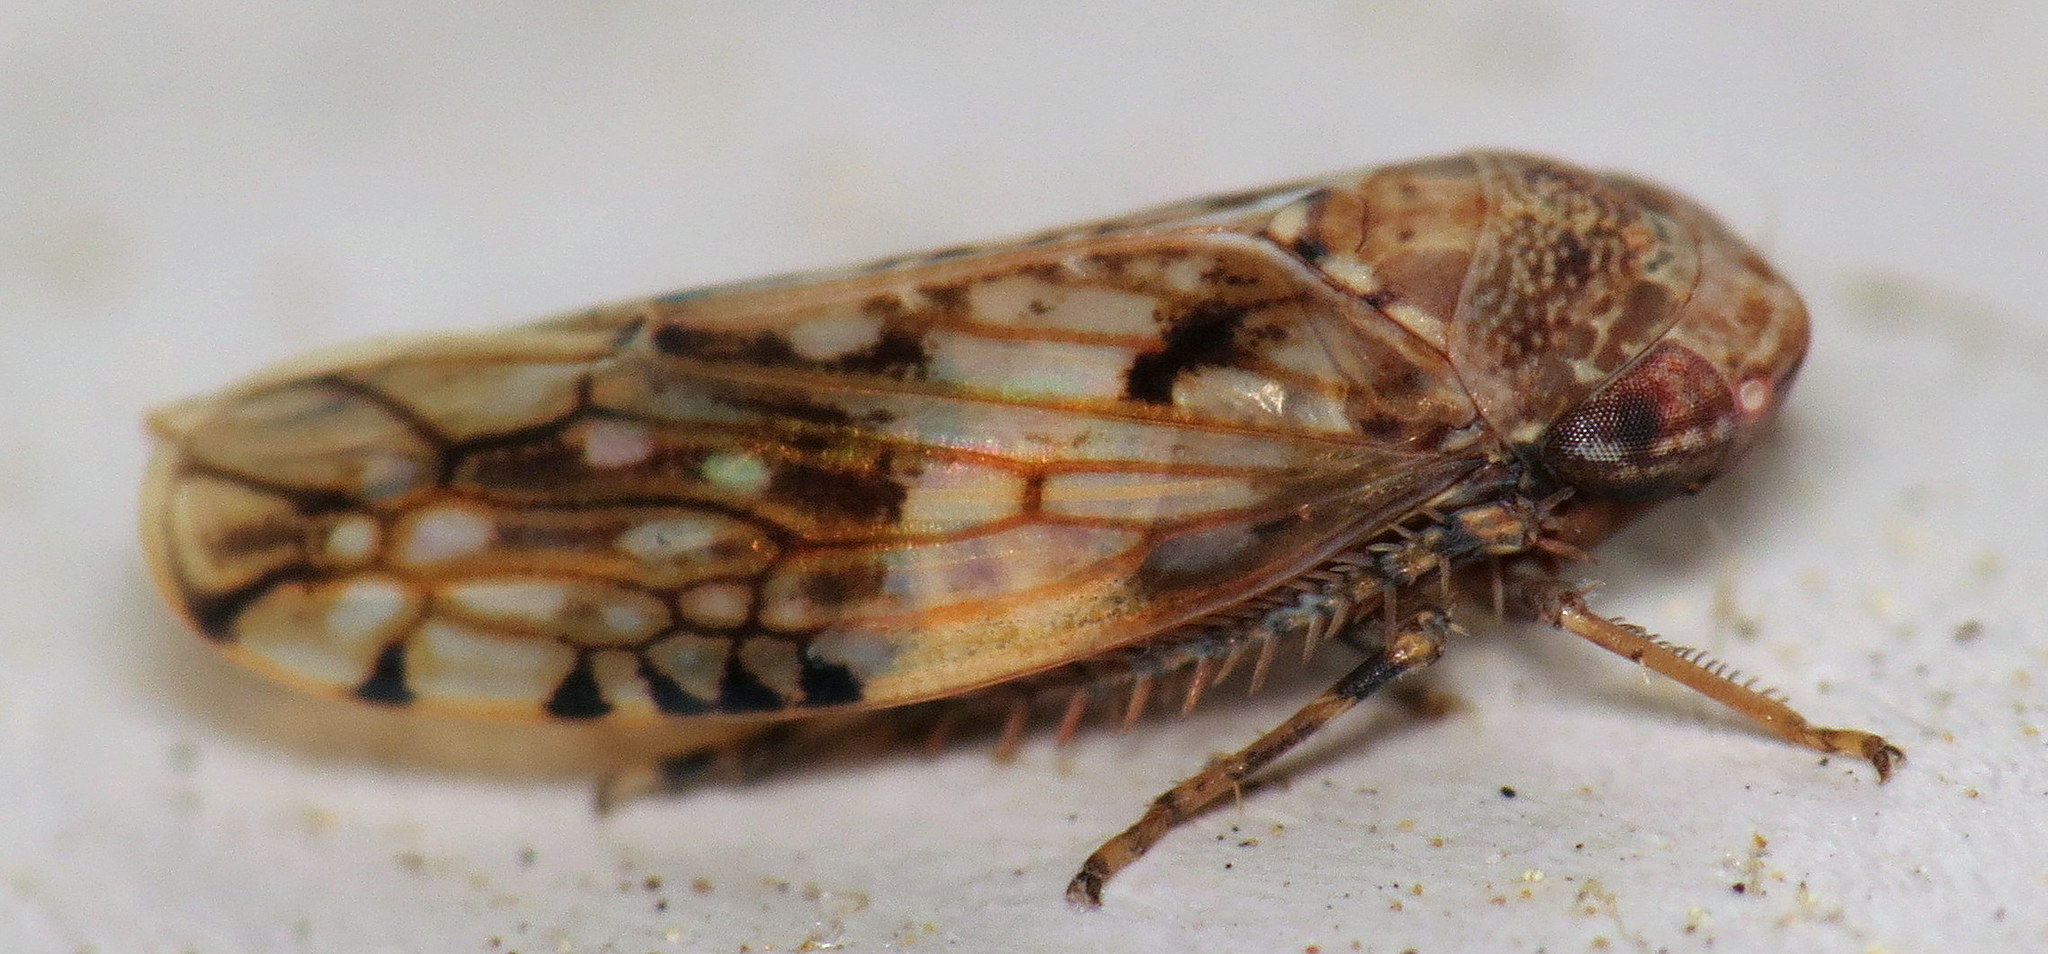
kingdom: Animalia
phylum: Arthropoda
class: Insecta
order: Hemiptera
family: Cicadellidae
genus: Menosoma
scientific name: Menosoma cinctum
